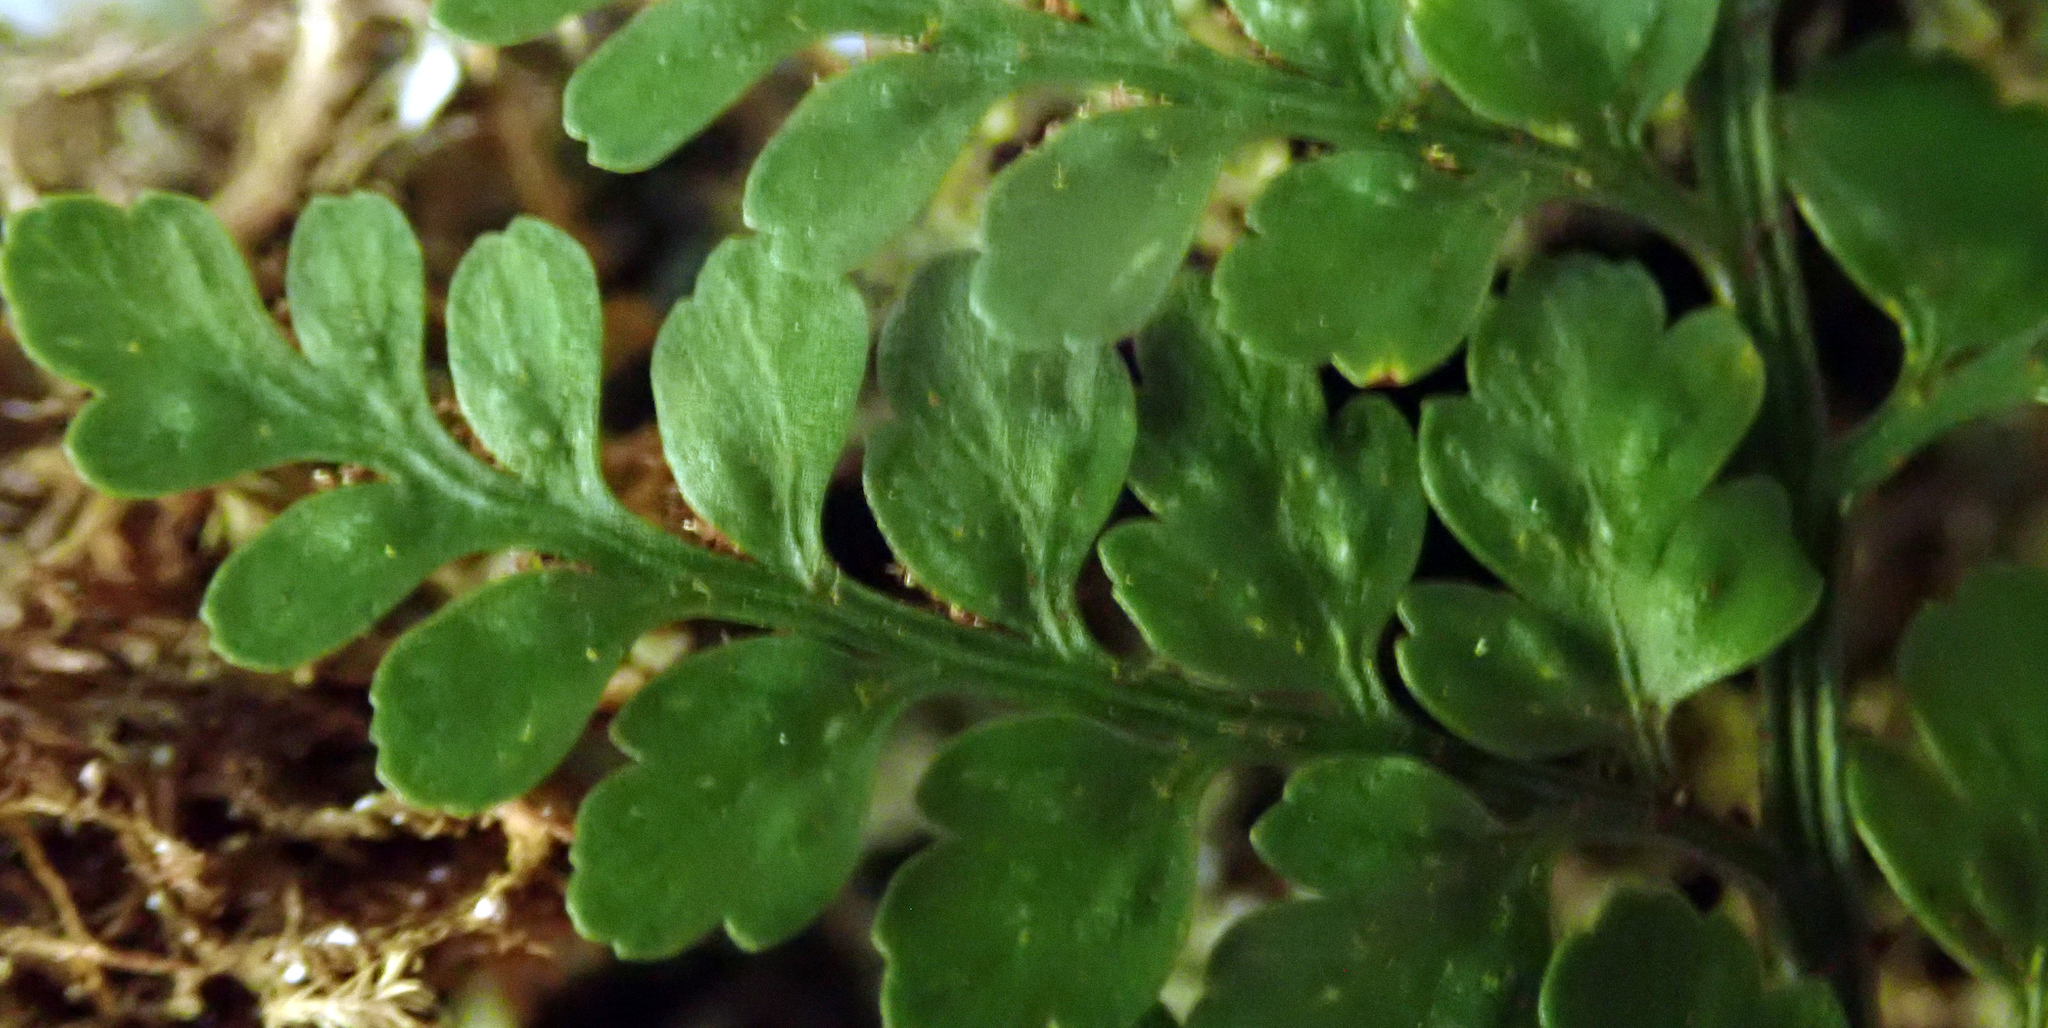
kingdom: Plantae
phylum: Tracheophyta
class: Polypodiopsida
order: Polypodiales
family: Aspleniaceae
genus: Asplenium
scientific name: Asplenium cimmeriorum
